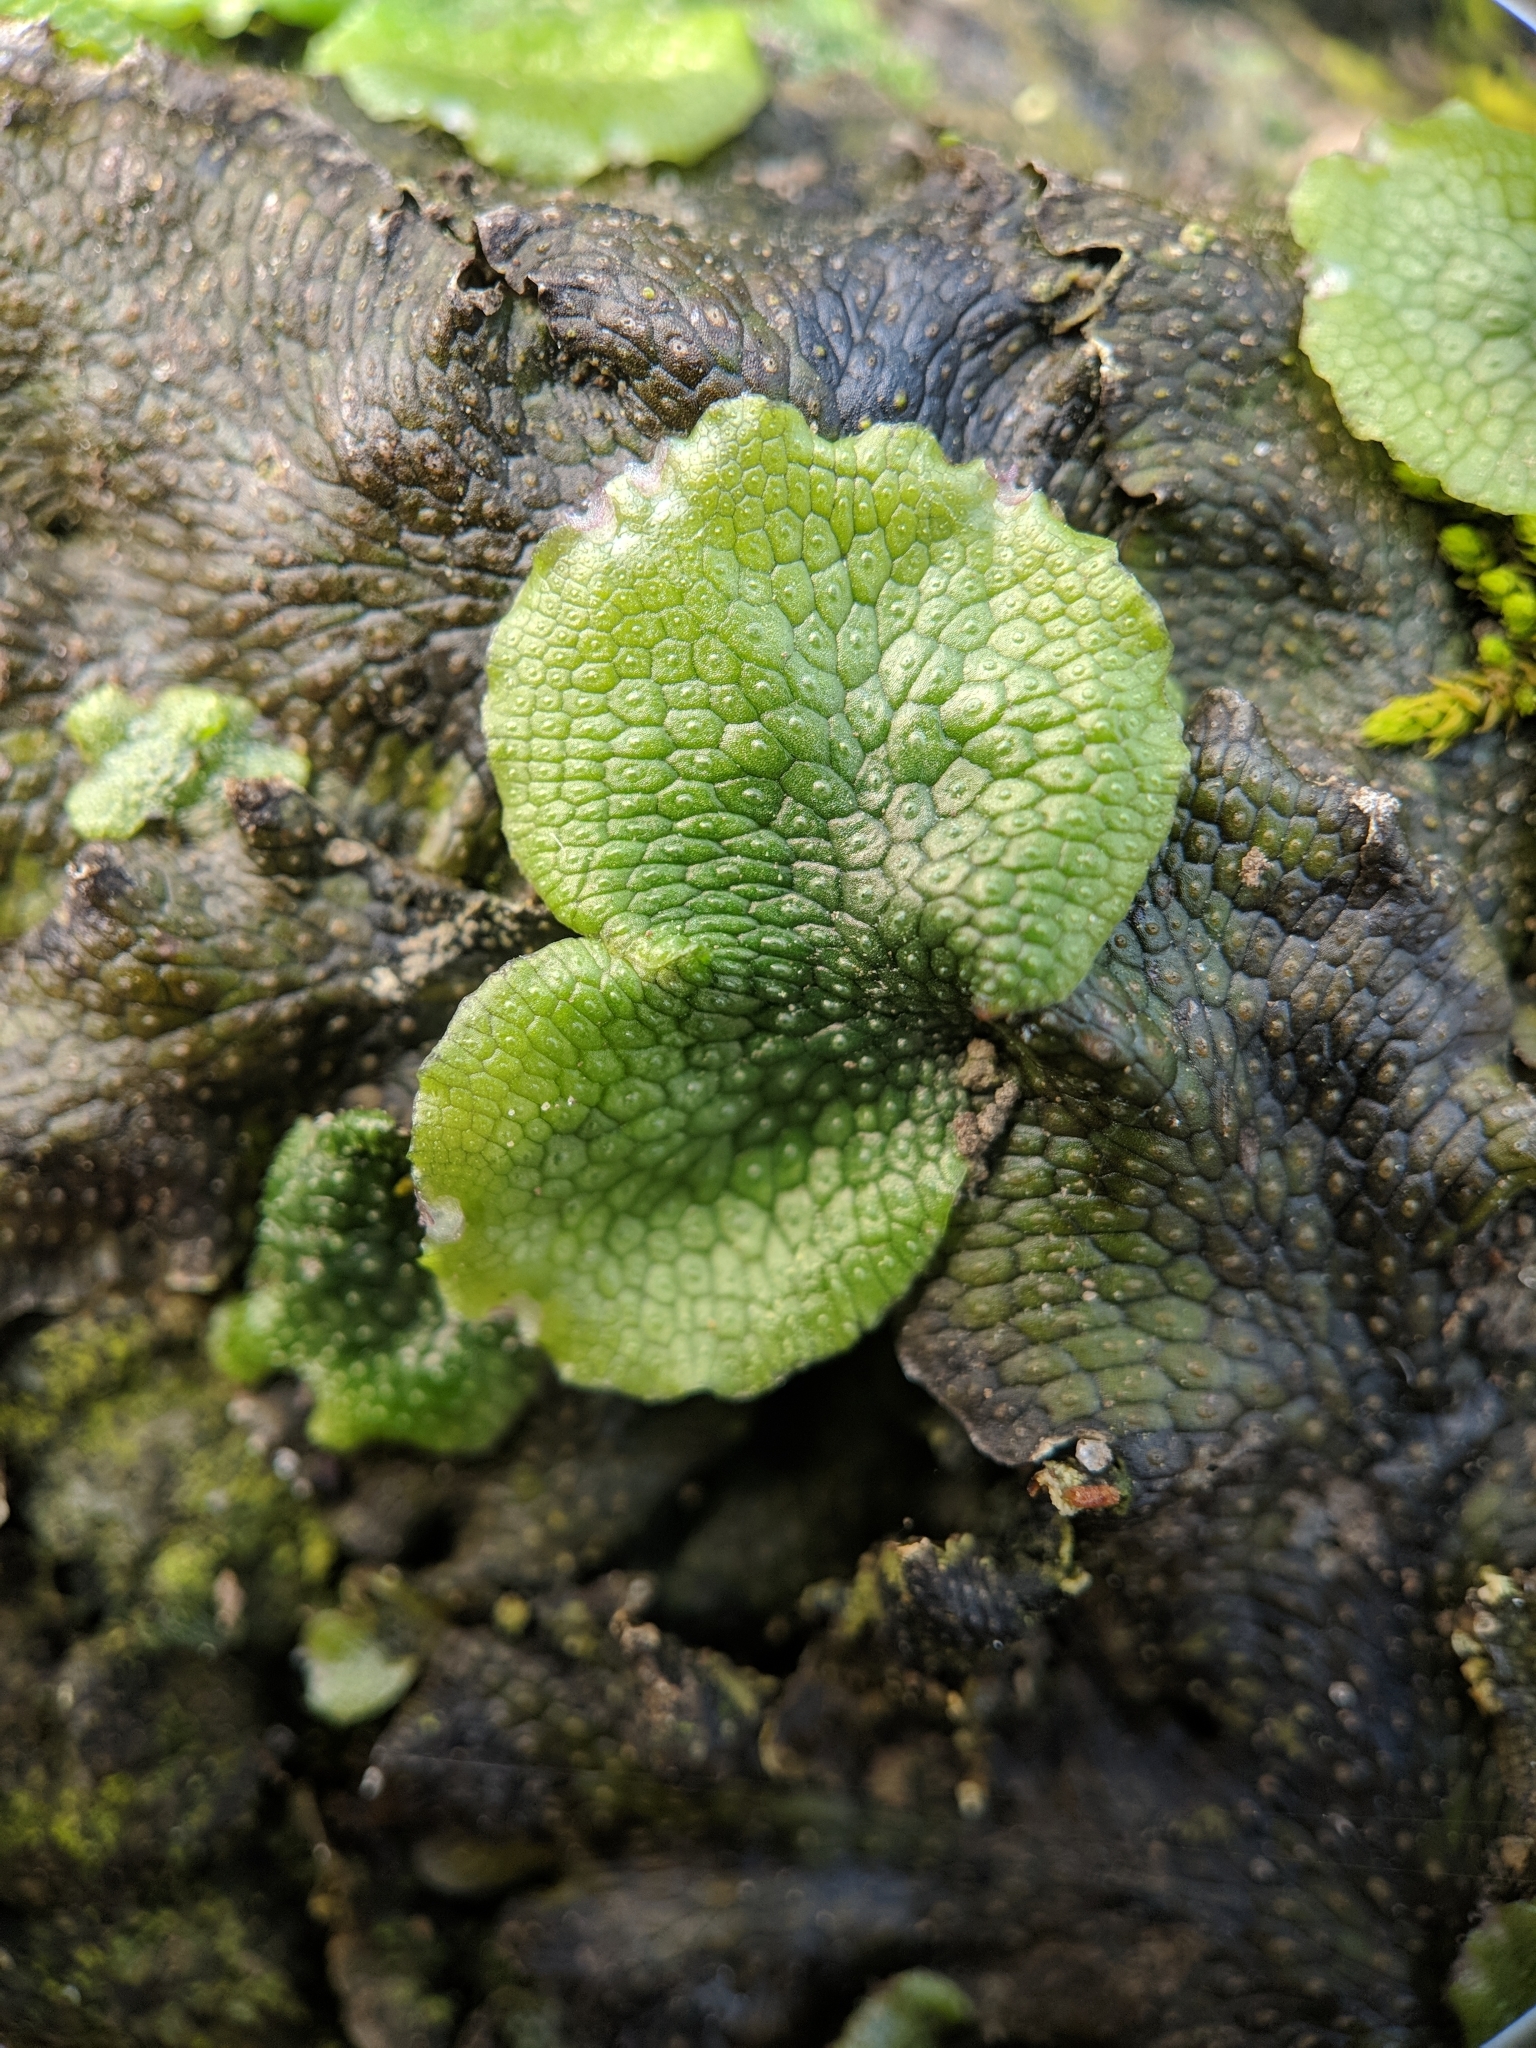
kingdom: Plantae
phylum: Marchantiophyta
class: Marchantiopsida
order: Marchantiales
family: Conocephalaceae
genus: Conocephalum
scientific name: Conocephalum salebrosum
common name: Cat-tongue liverwort
